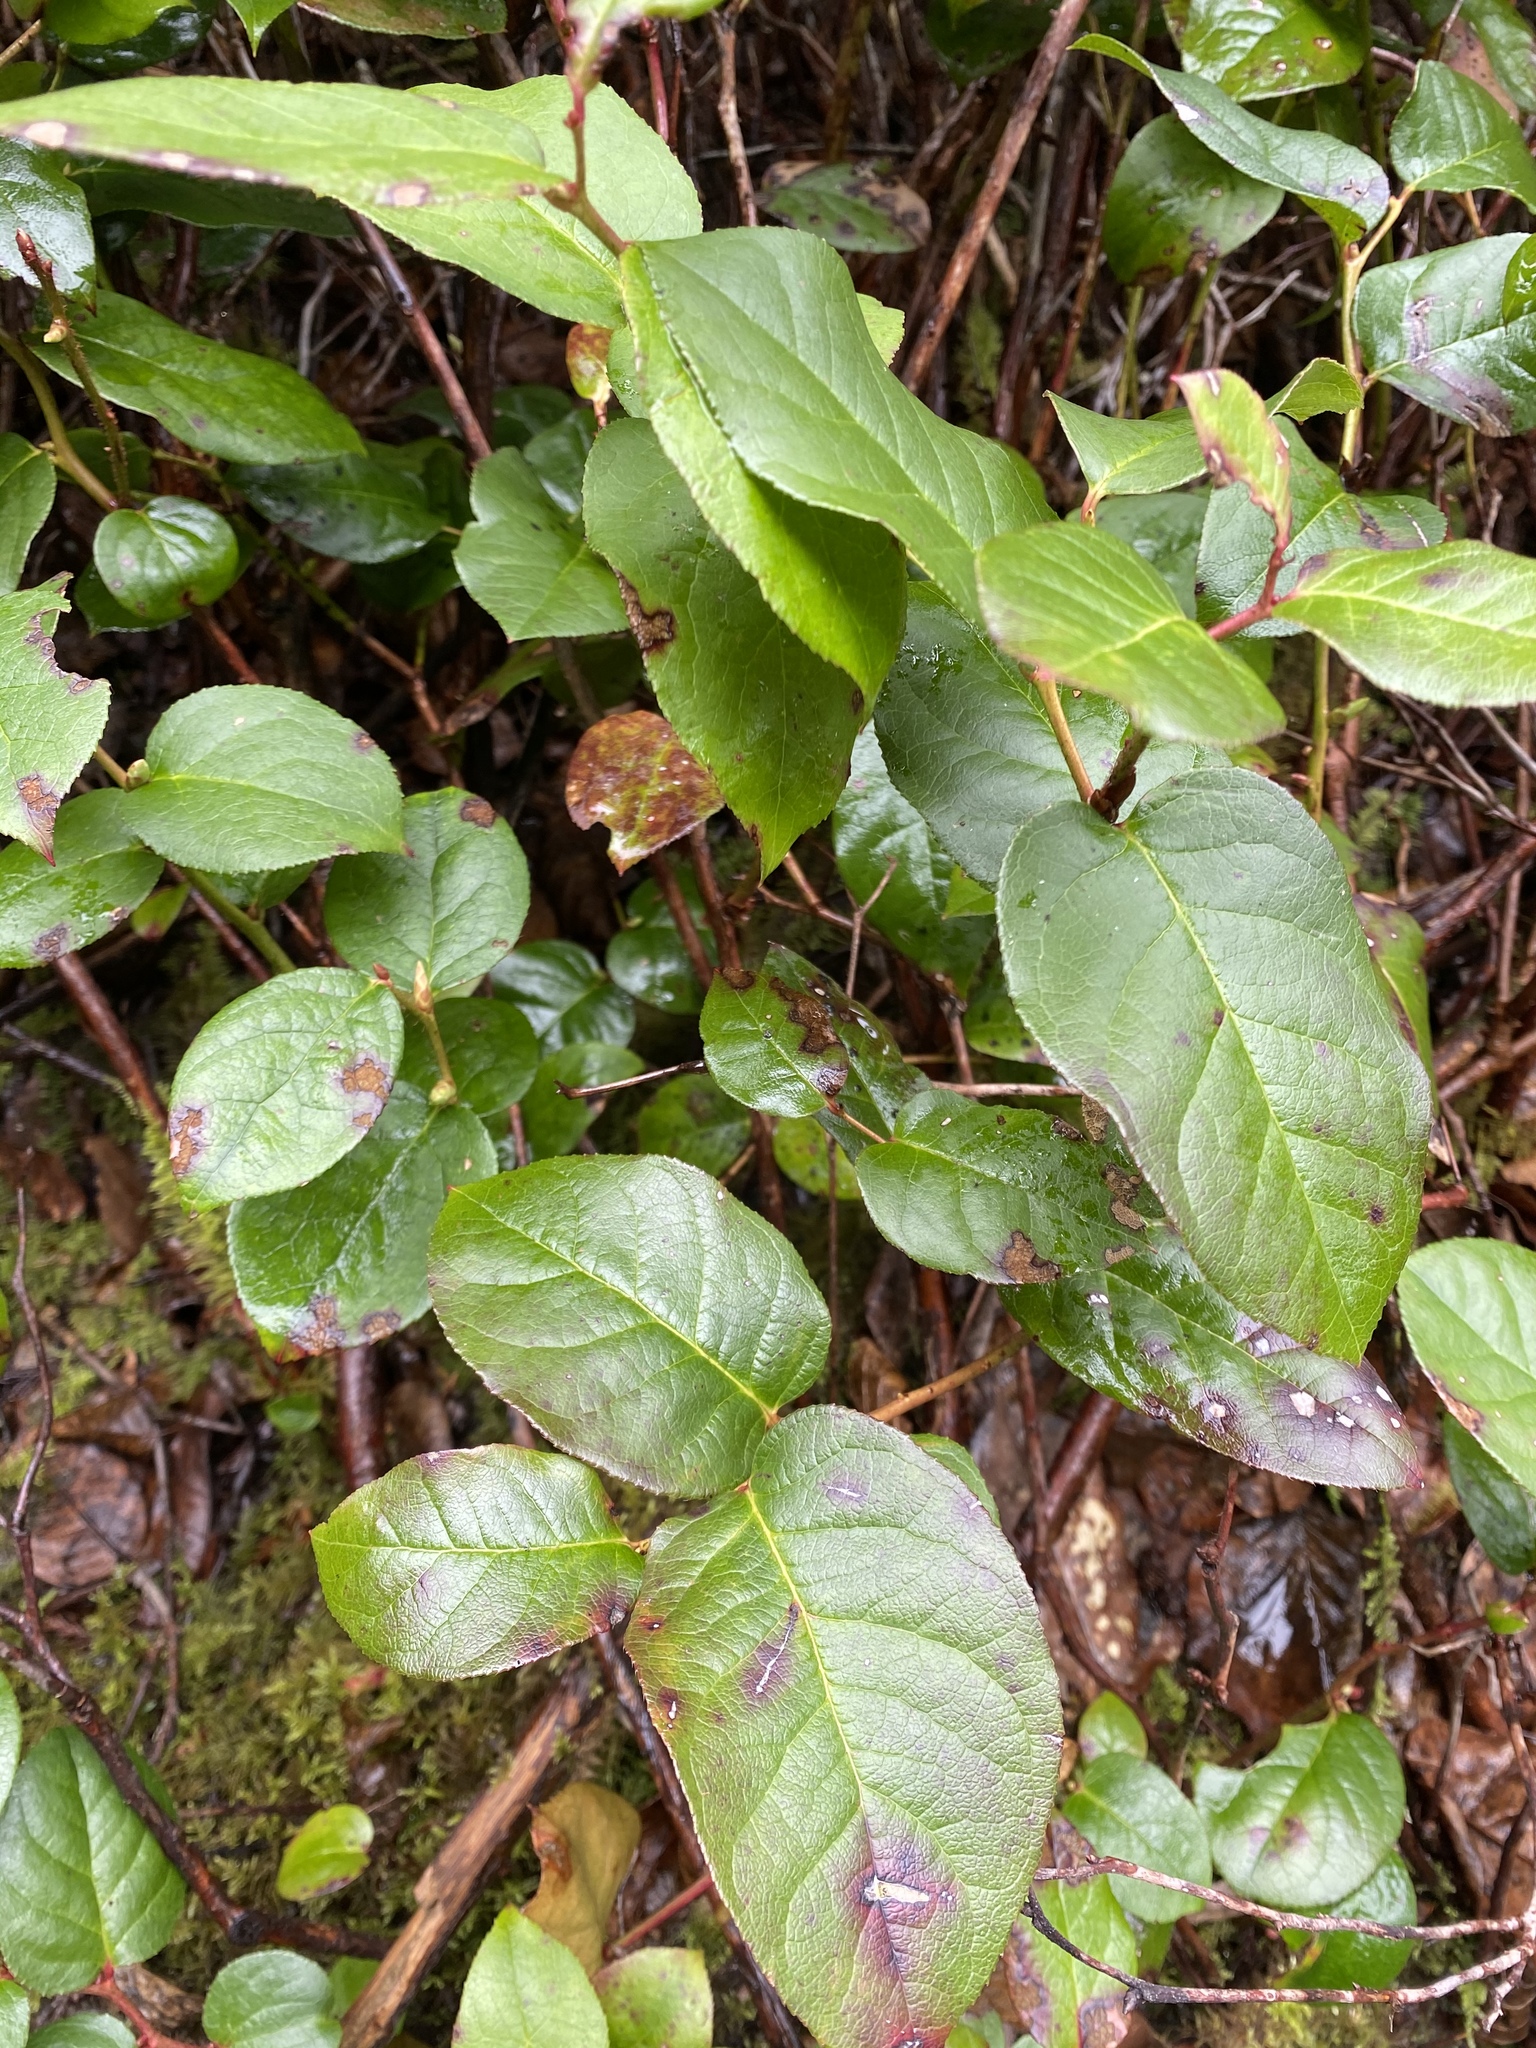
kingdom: Plantae
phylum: Tracheophyta
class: Magnoliopsida
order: Ericales
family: Ericaceae
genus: Gaultheria
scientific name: Gaultheria shallon
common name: Shallon
